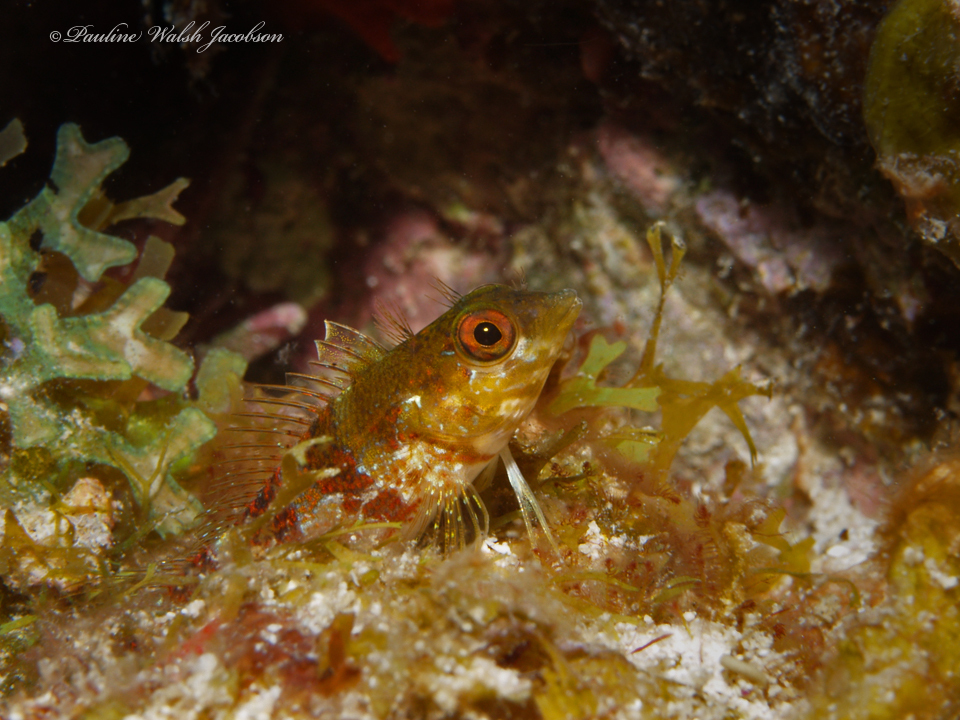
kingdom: Animalia
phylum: Chordata
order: Perciformes
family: Labrisomidae
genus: Malacoctenus
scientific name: Malacoctenus triangulatus
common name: Saddled blenny
